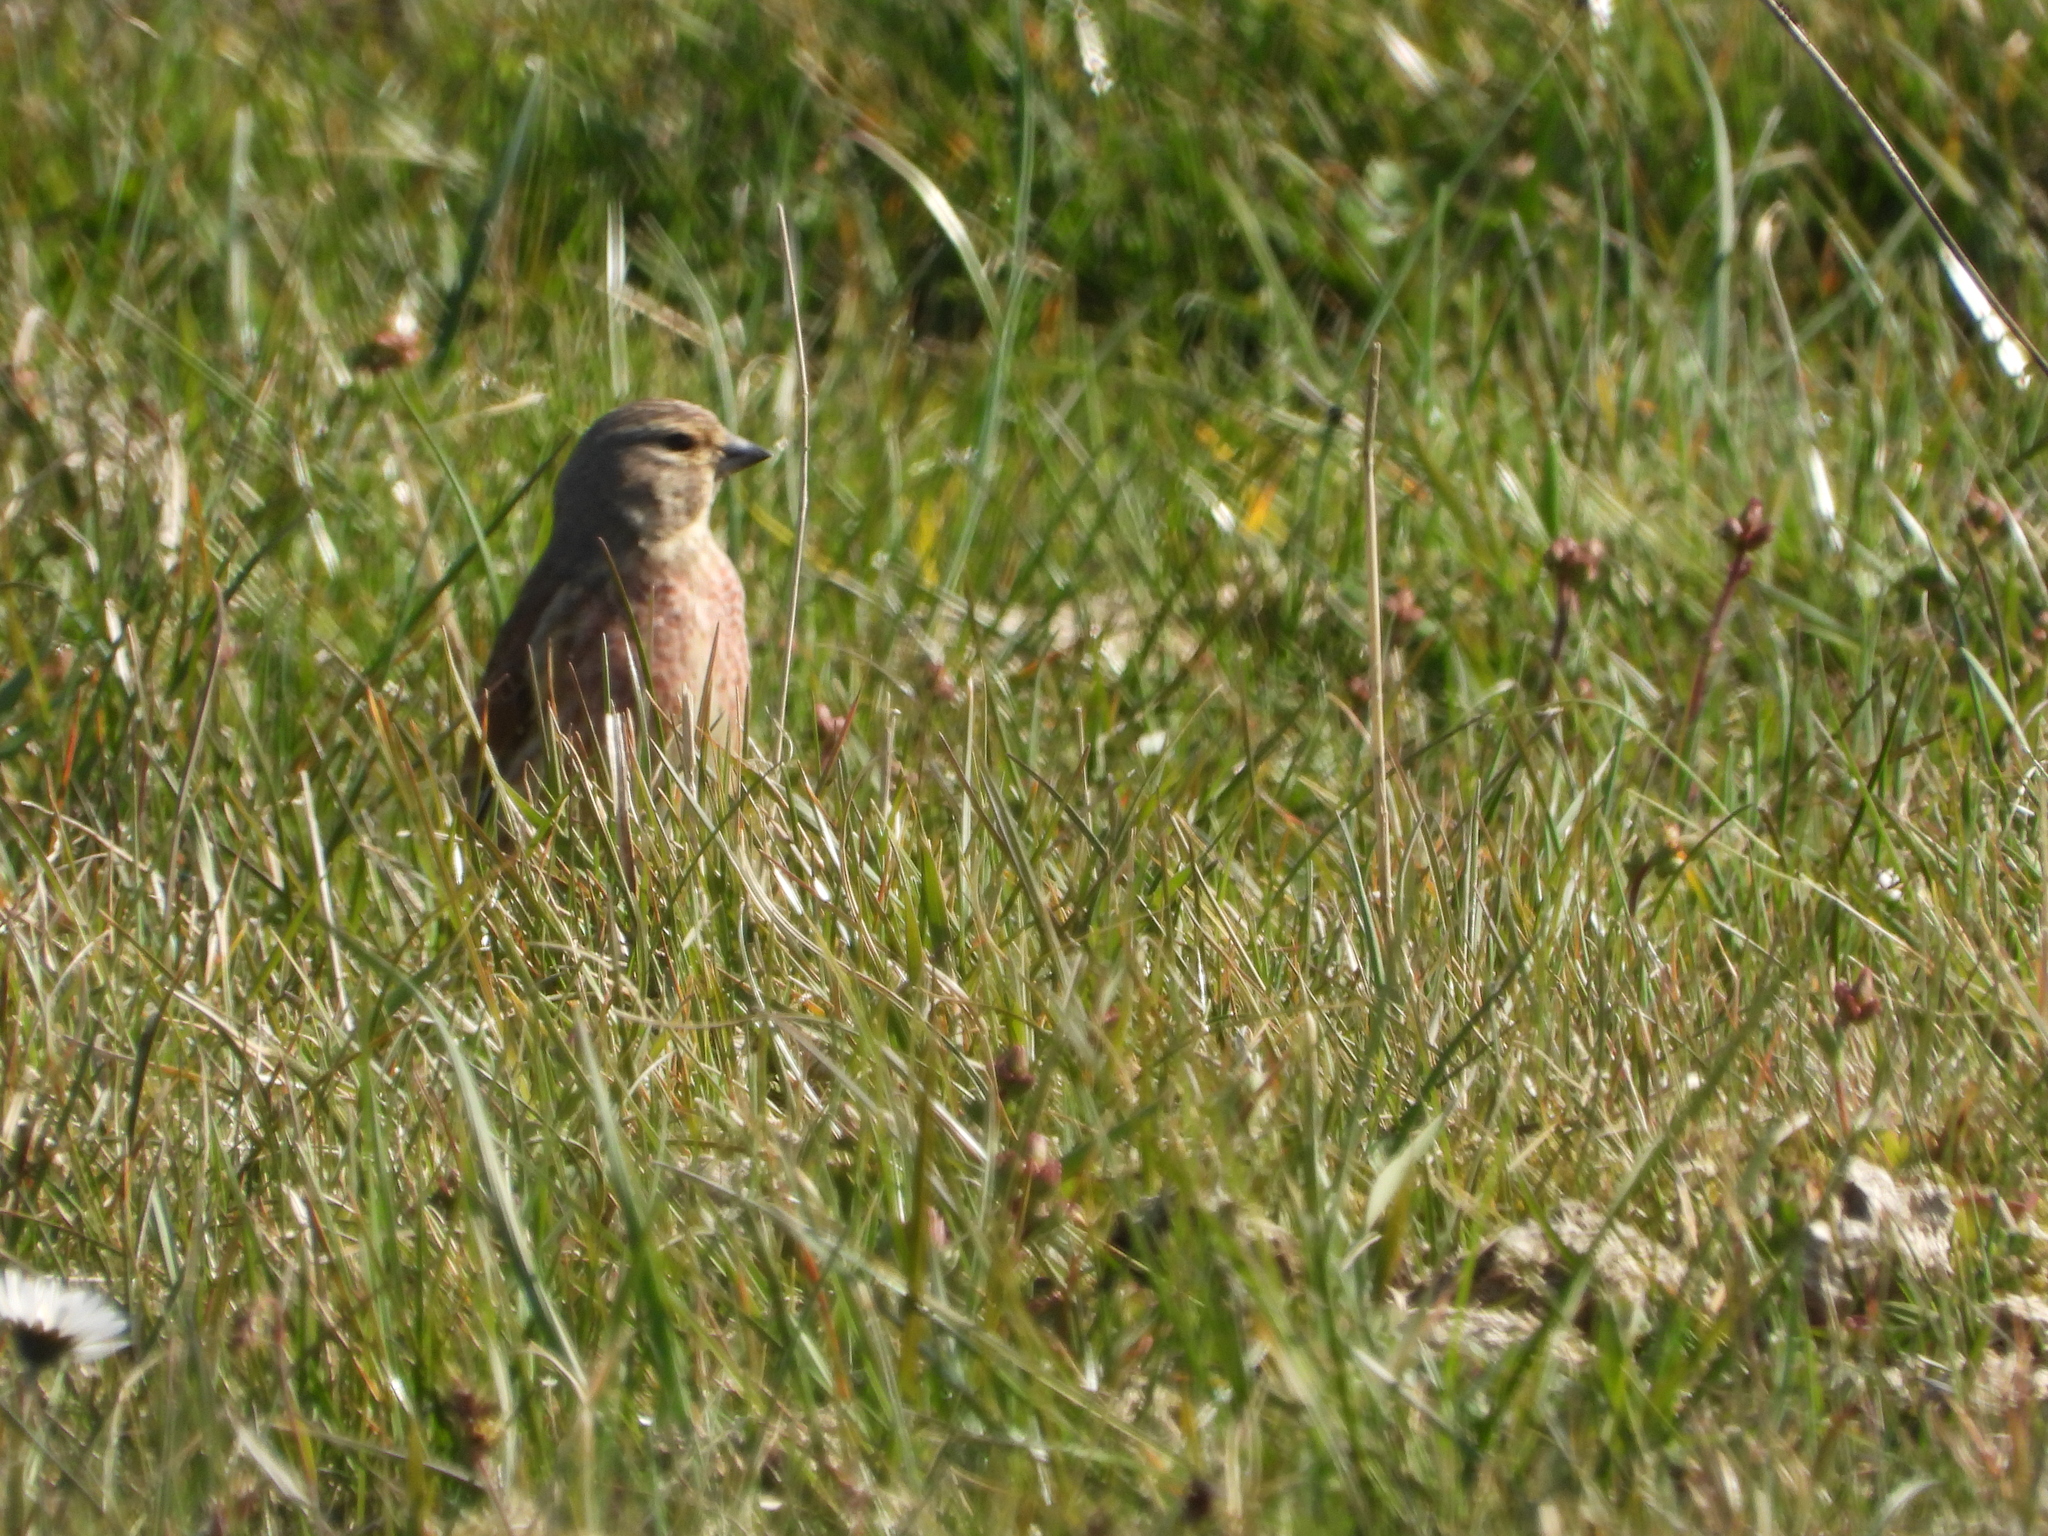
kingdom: Animalia
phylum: Chordata
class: Aves
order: Passeriformes
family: Fringillidae
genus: Linaria
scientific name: Linaria cannabina
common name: Common linnet
